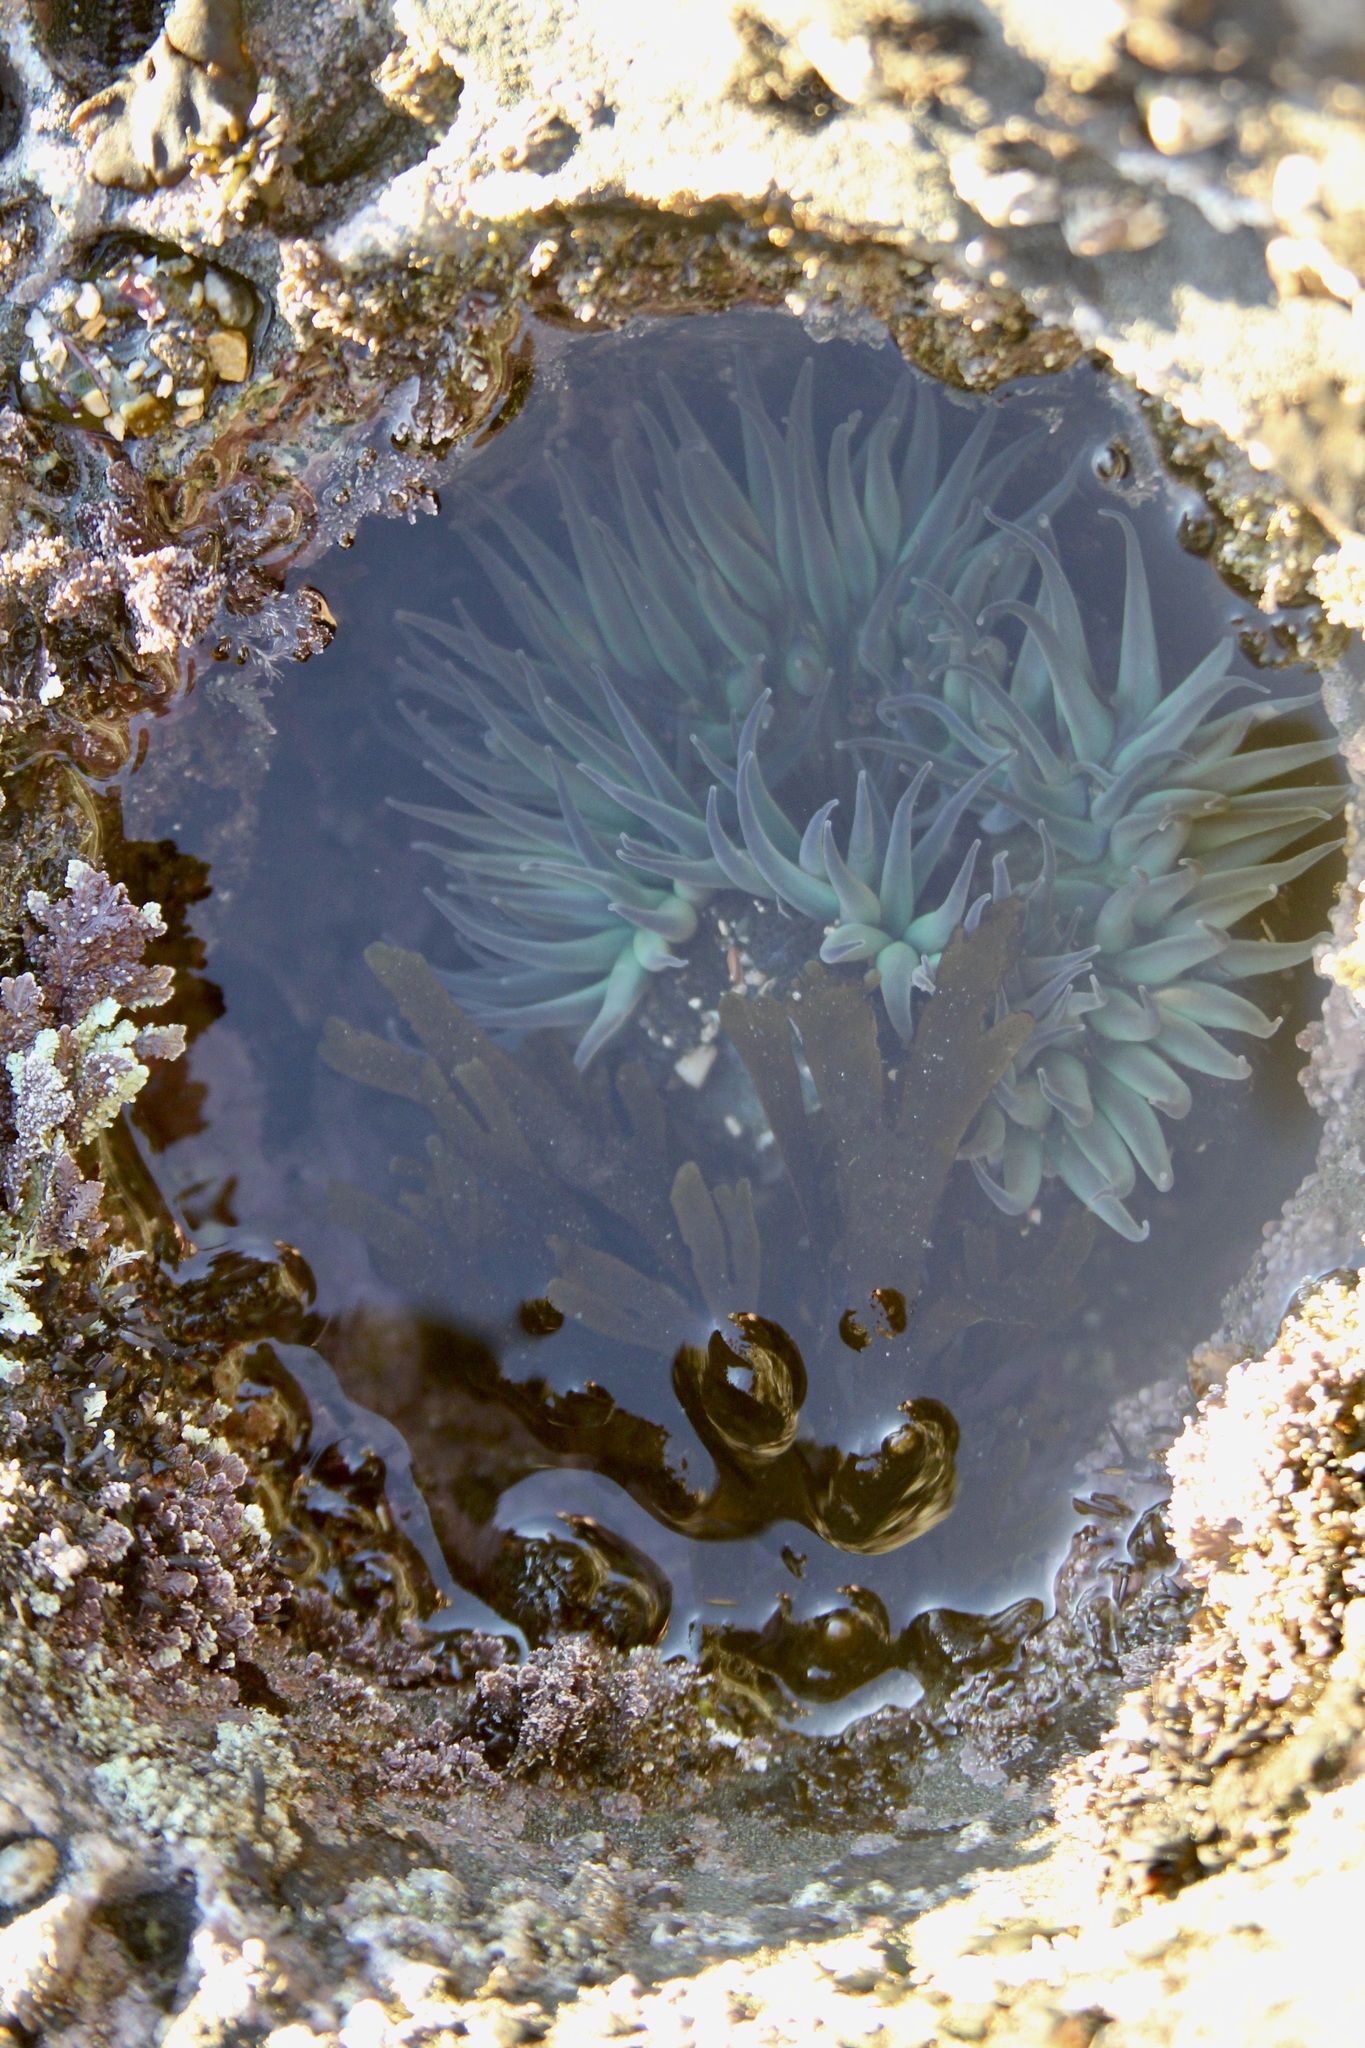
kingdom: Animalia
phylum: Cnidaria
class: Anthozoa
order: Actiniaria
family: Actiniidae
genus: Anthopleura
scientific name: Anthopleura sola
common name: Sun anemone
